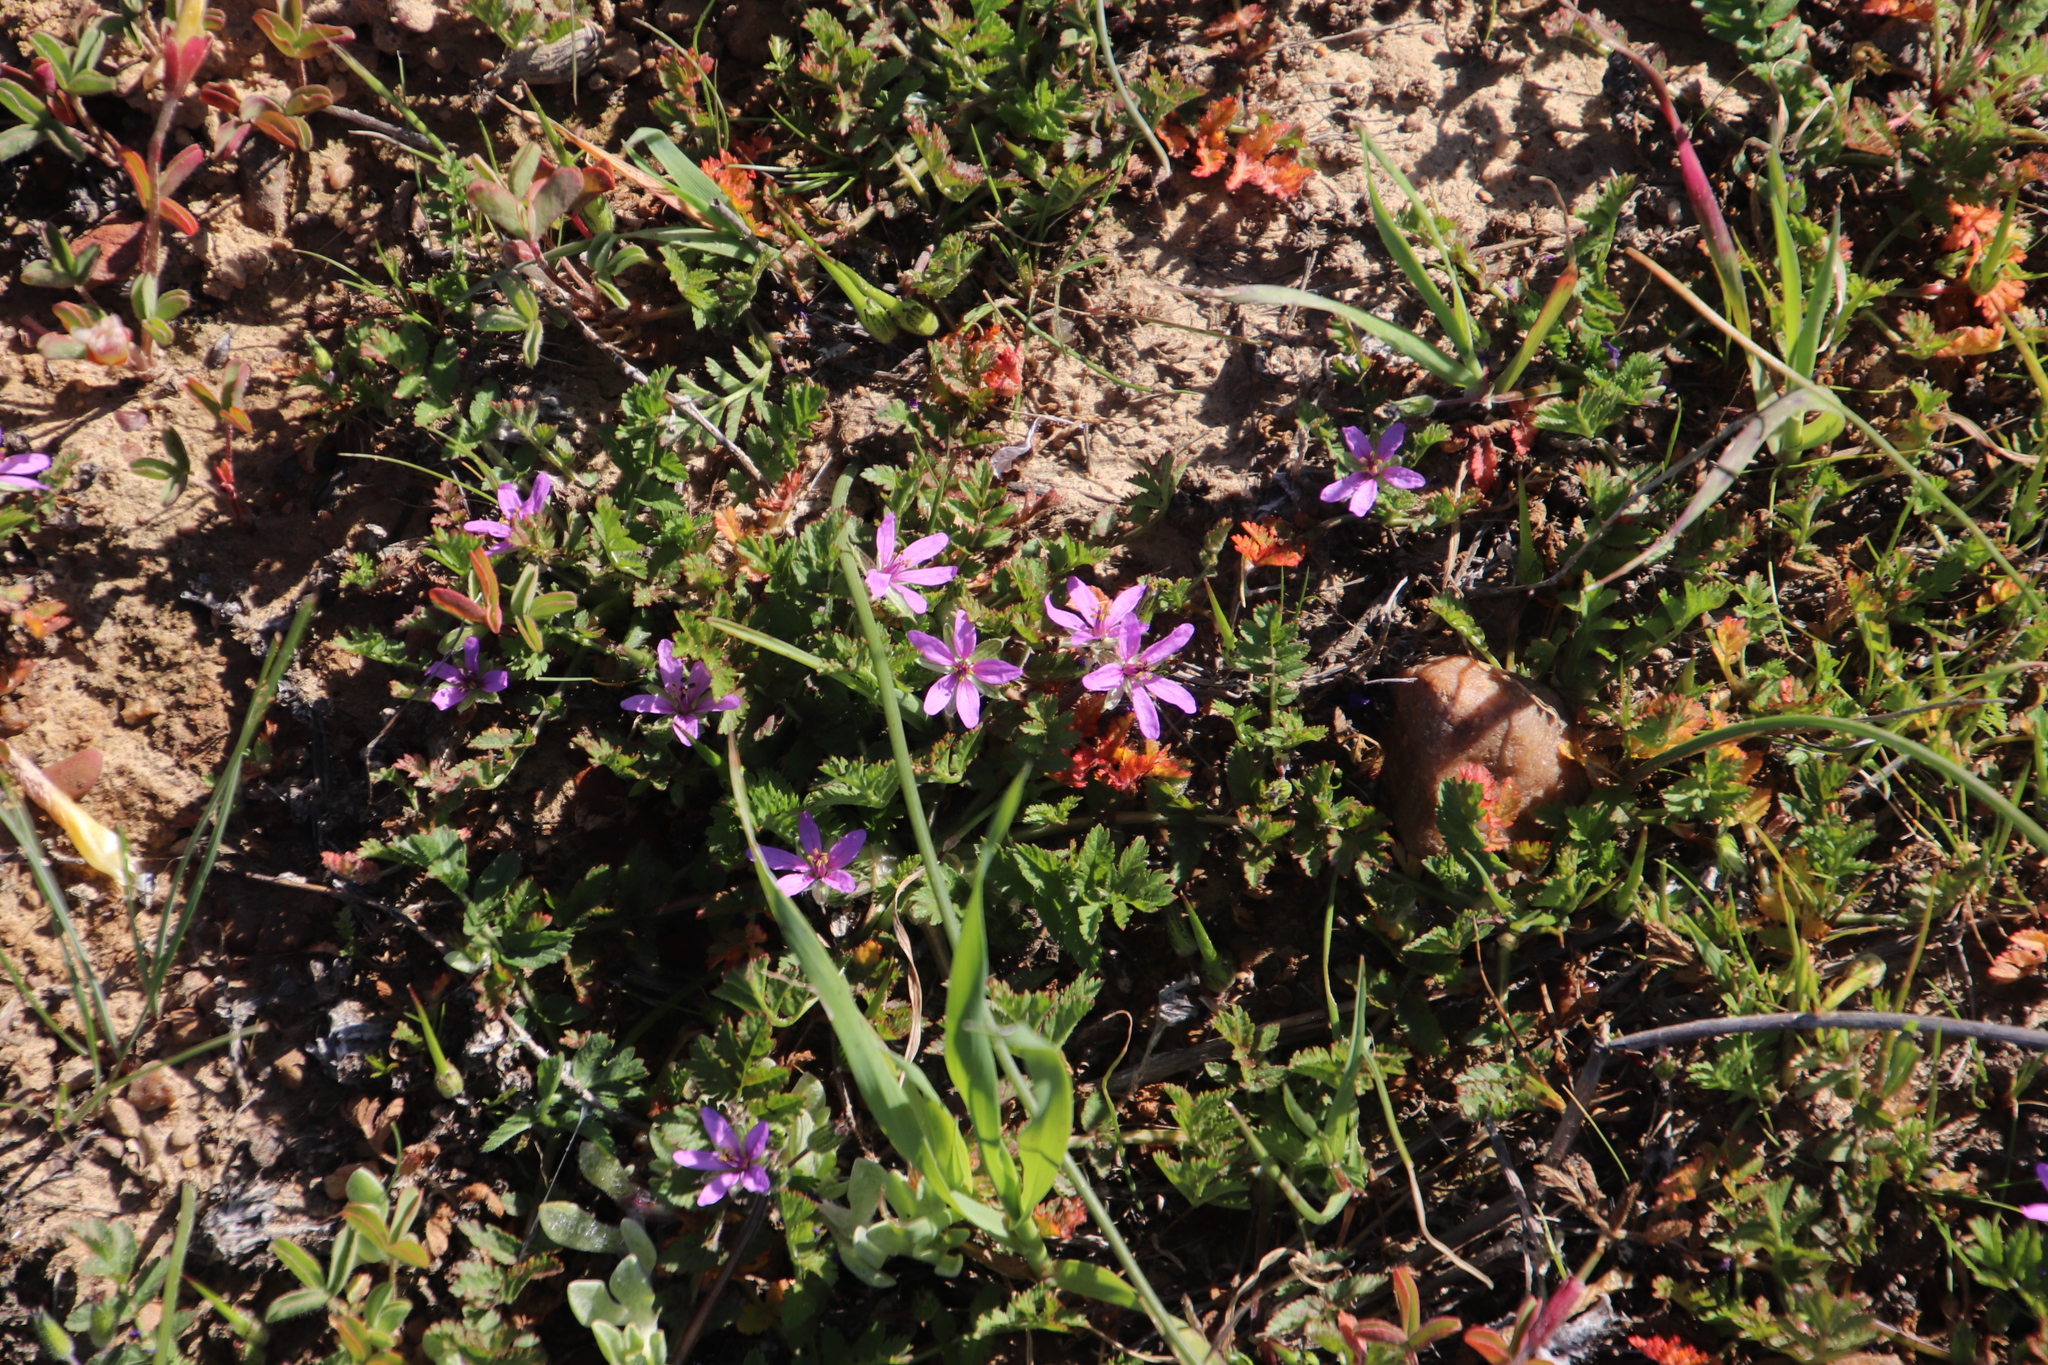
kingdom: Plantae
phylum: Tracheophyta
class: Magnoliopsida
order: Geraniales
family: Geraniaceae
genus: Erodium
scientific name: Erodium moschatum
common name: Musk stork's-bill
